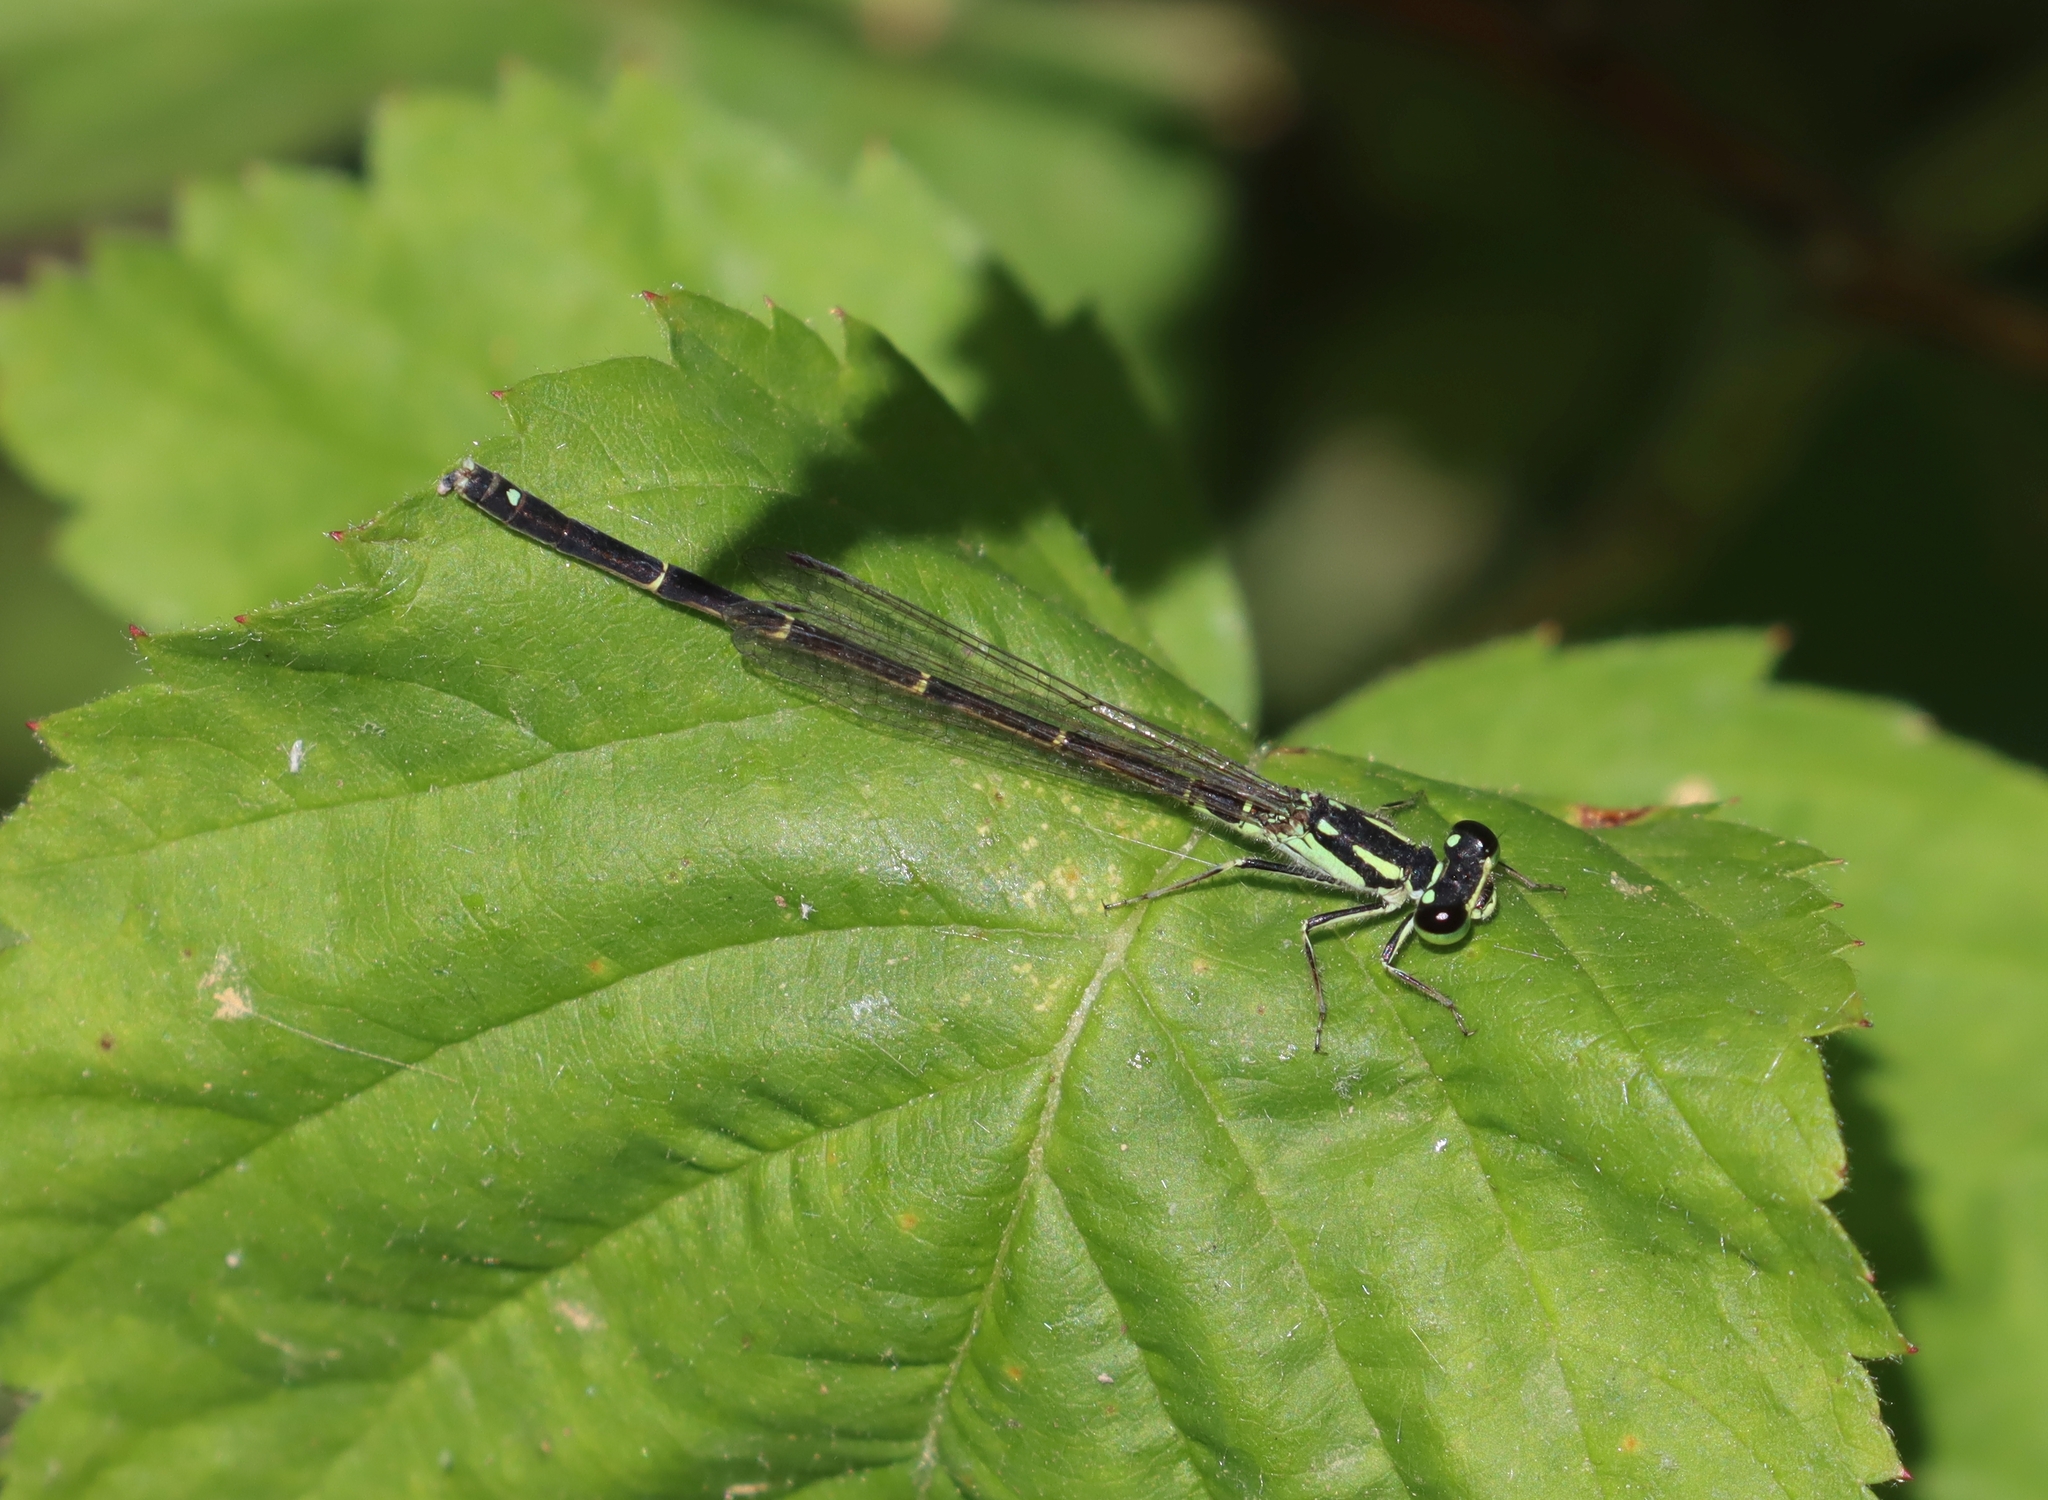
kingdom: Animalia
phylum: Arthropoda
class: Insecta
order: Odonata
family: Coenagrionidae
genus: Ischnura
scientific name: Ischnura posita
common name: Fragile forktail
